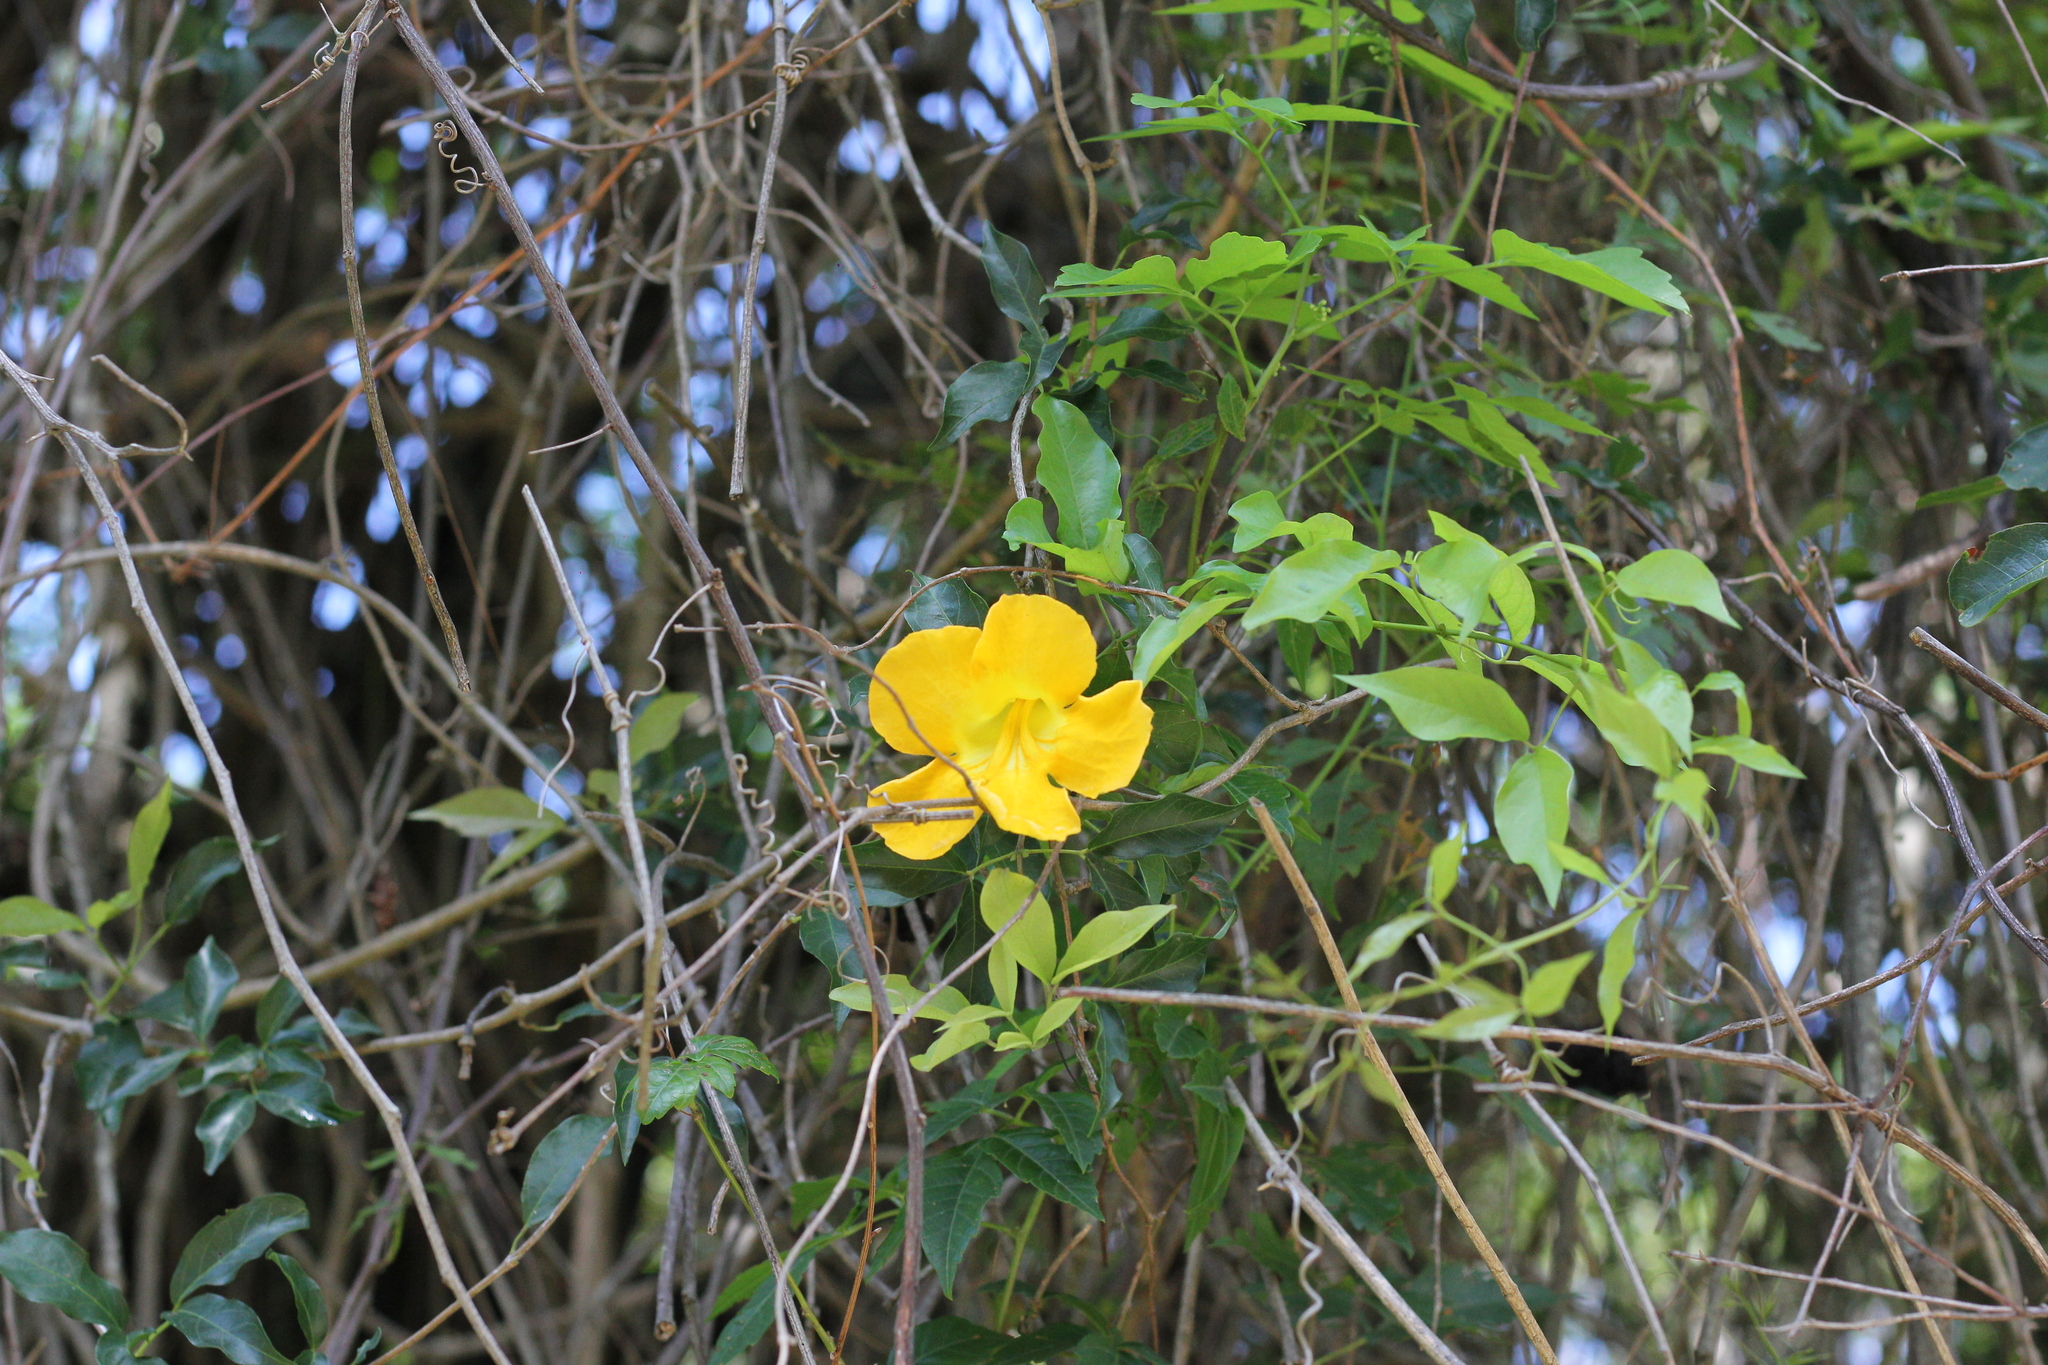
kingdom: Plantae
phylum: Tracheophyta
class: Magnoliopsida
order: Lamiales
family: Bignoniaceae
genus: Dolichandra
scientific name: Dolichandra unguis-cati
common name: Catclaw vine
